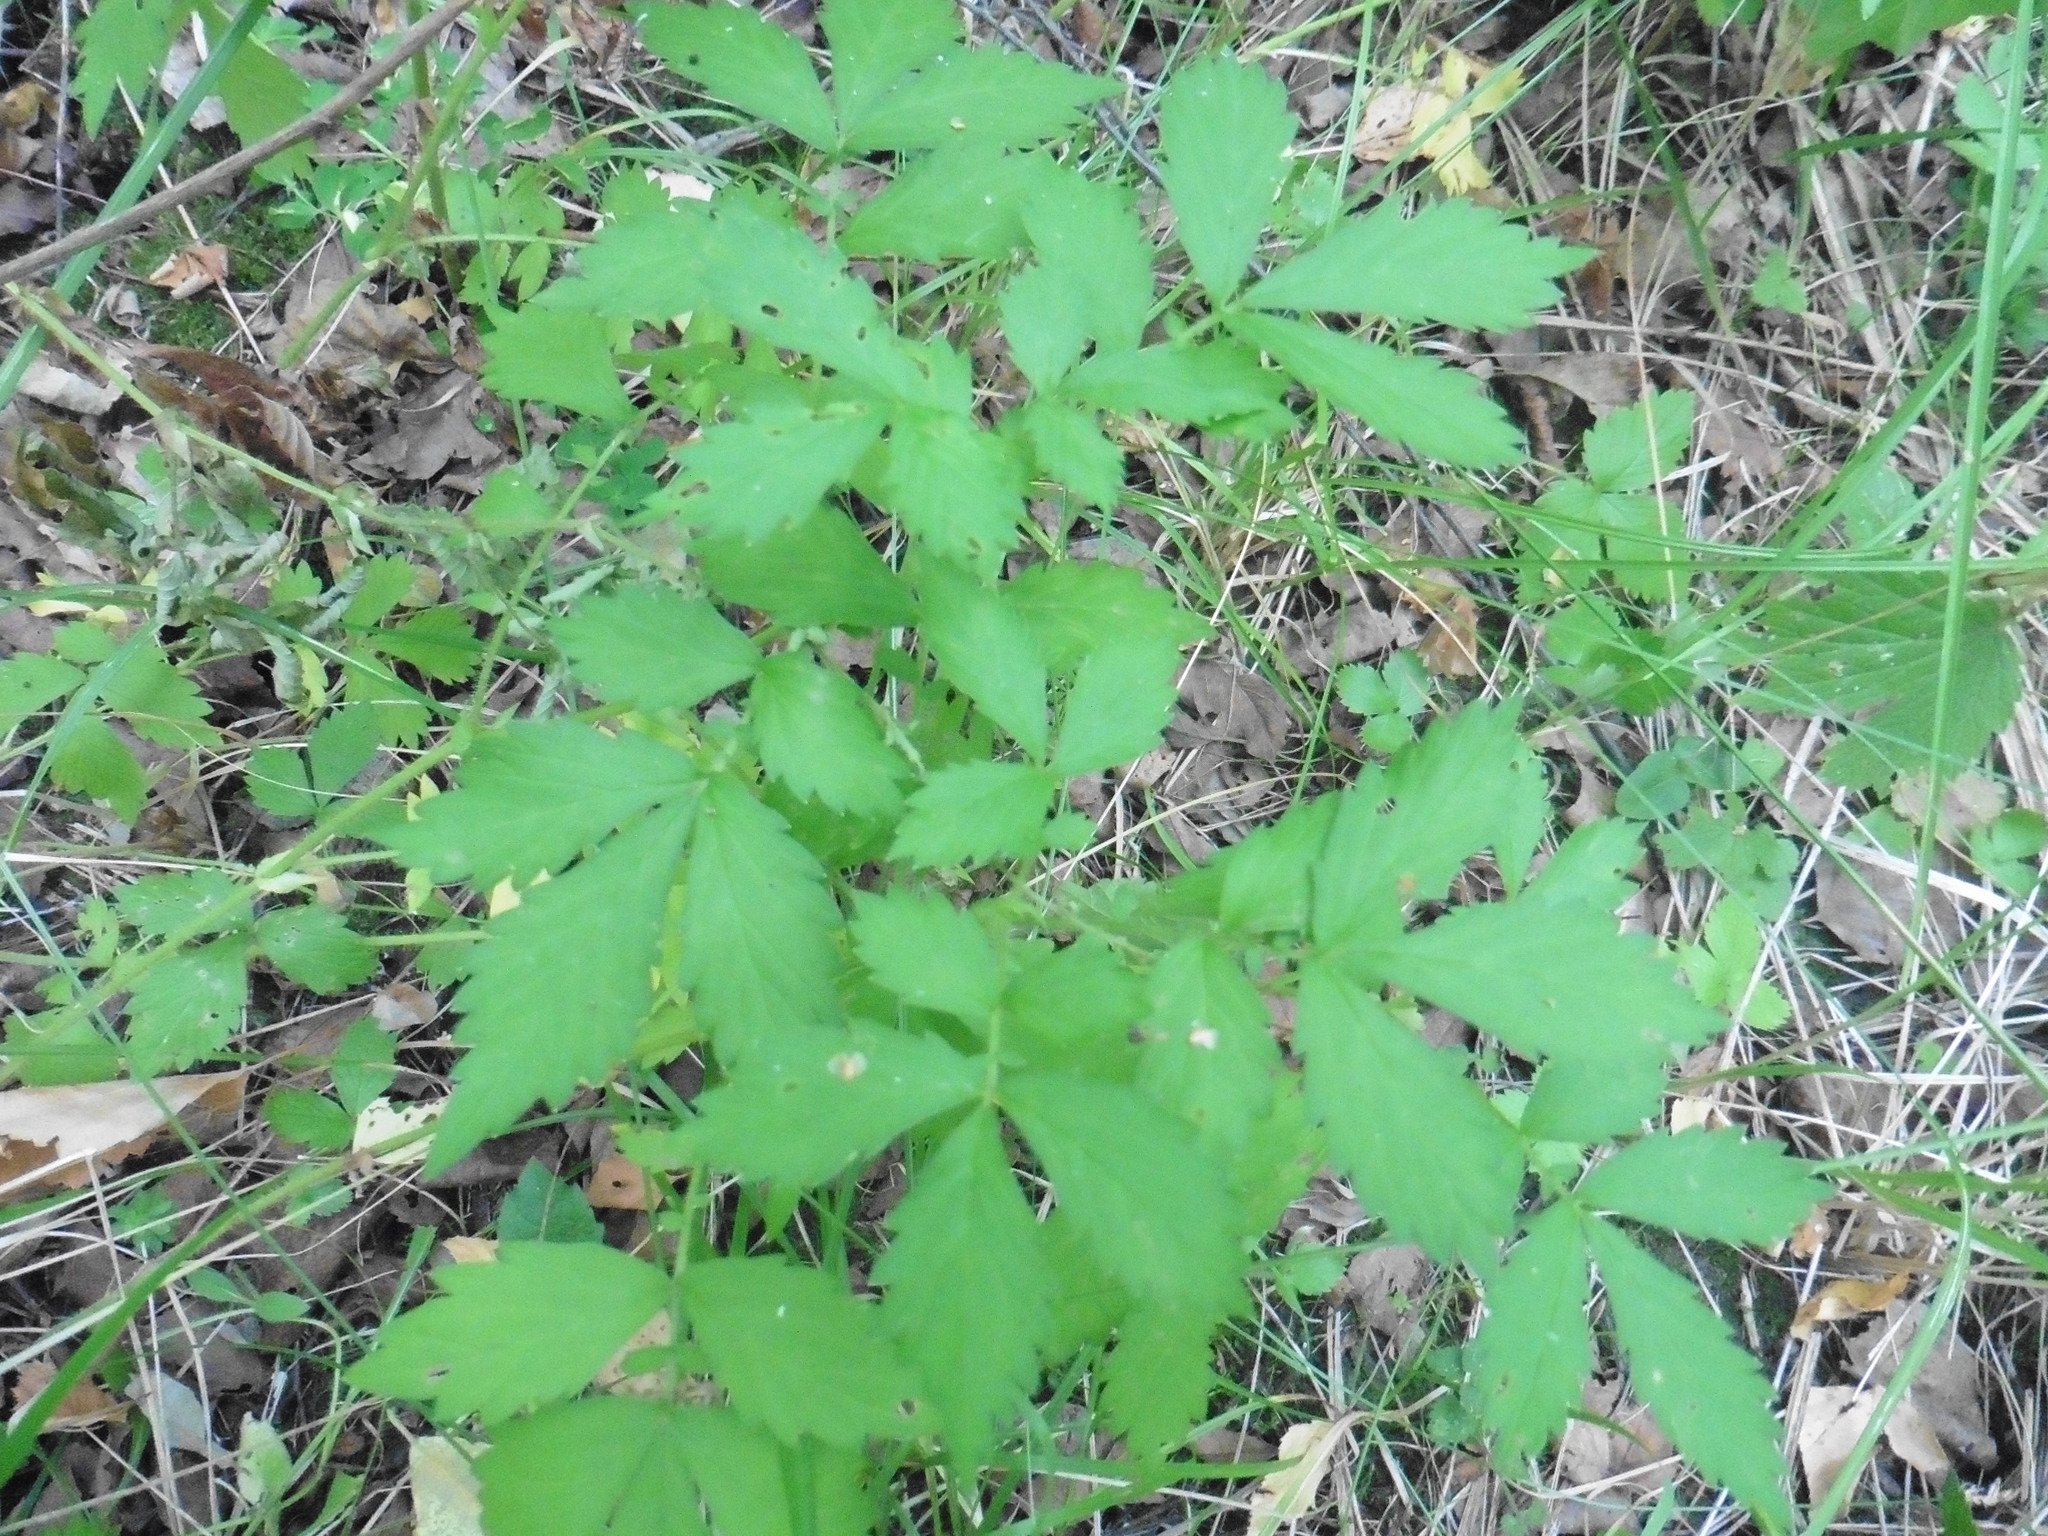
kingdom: Plantae
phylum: Tracheophyta
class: Magnoliopsida
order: Rosales
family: Rosaceae
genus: Agrimonia
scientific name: Agrimonia pilosa
